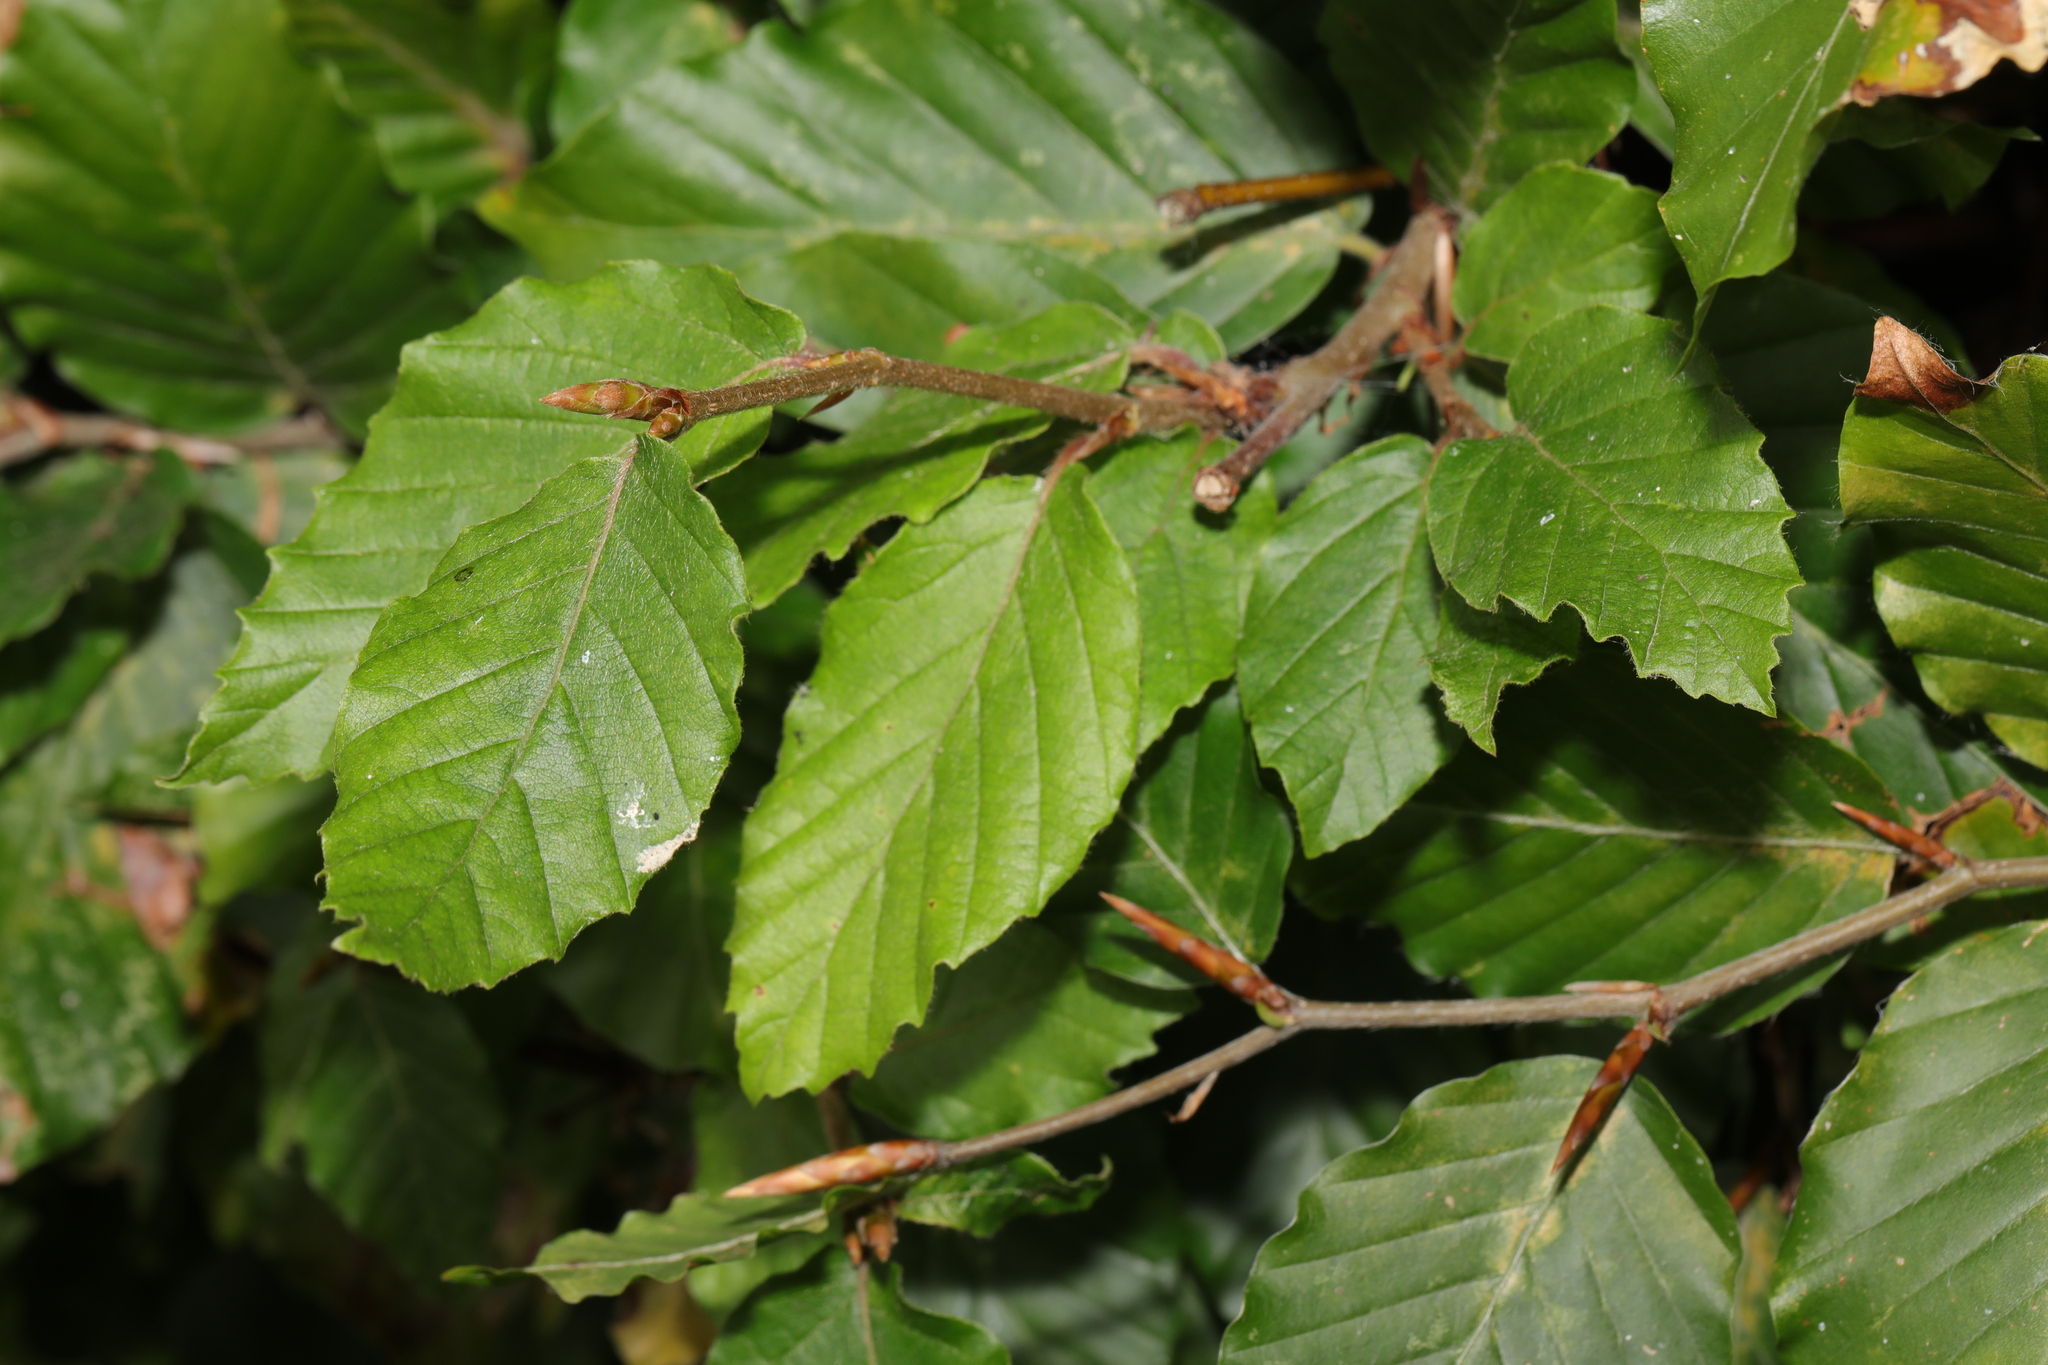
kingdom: Plantae
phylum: Tracheophyta
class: Magnoliopsida
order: Fagales
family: Fagaceae
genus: Fagus
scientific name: Fagus sylvatica
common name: Beech
